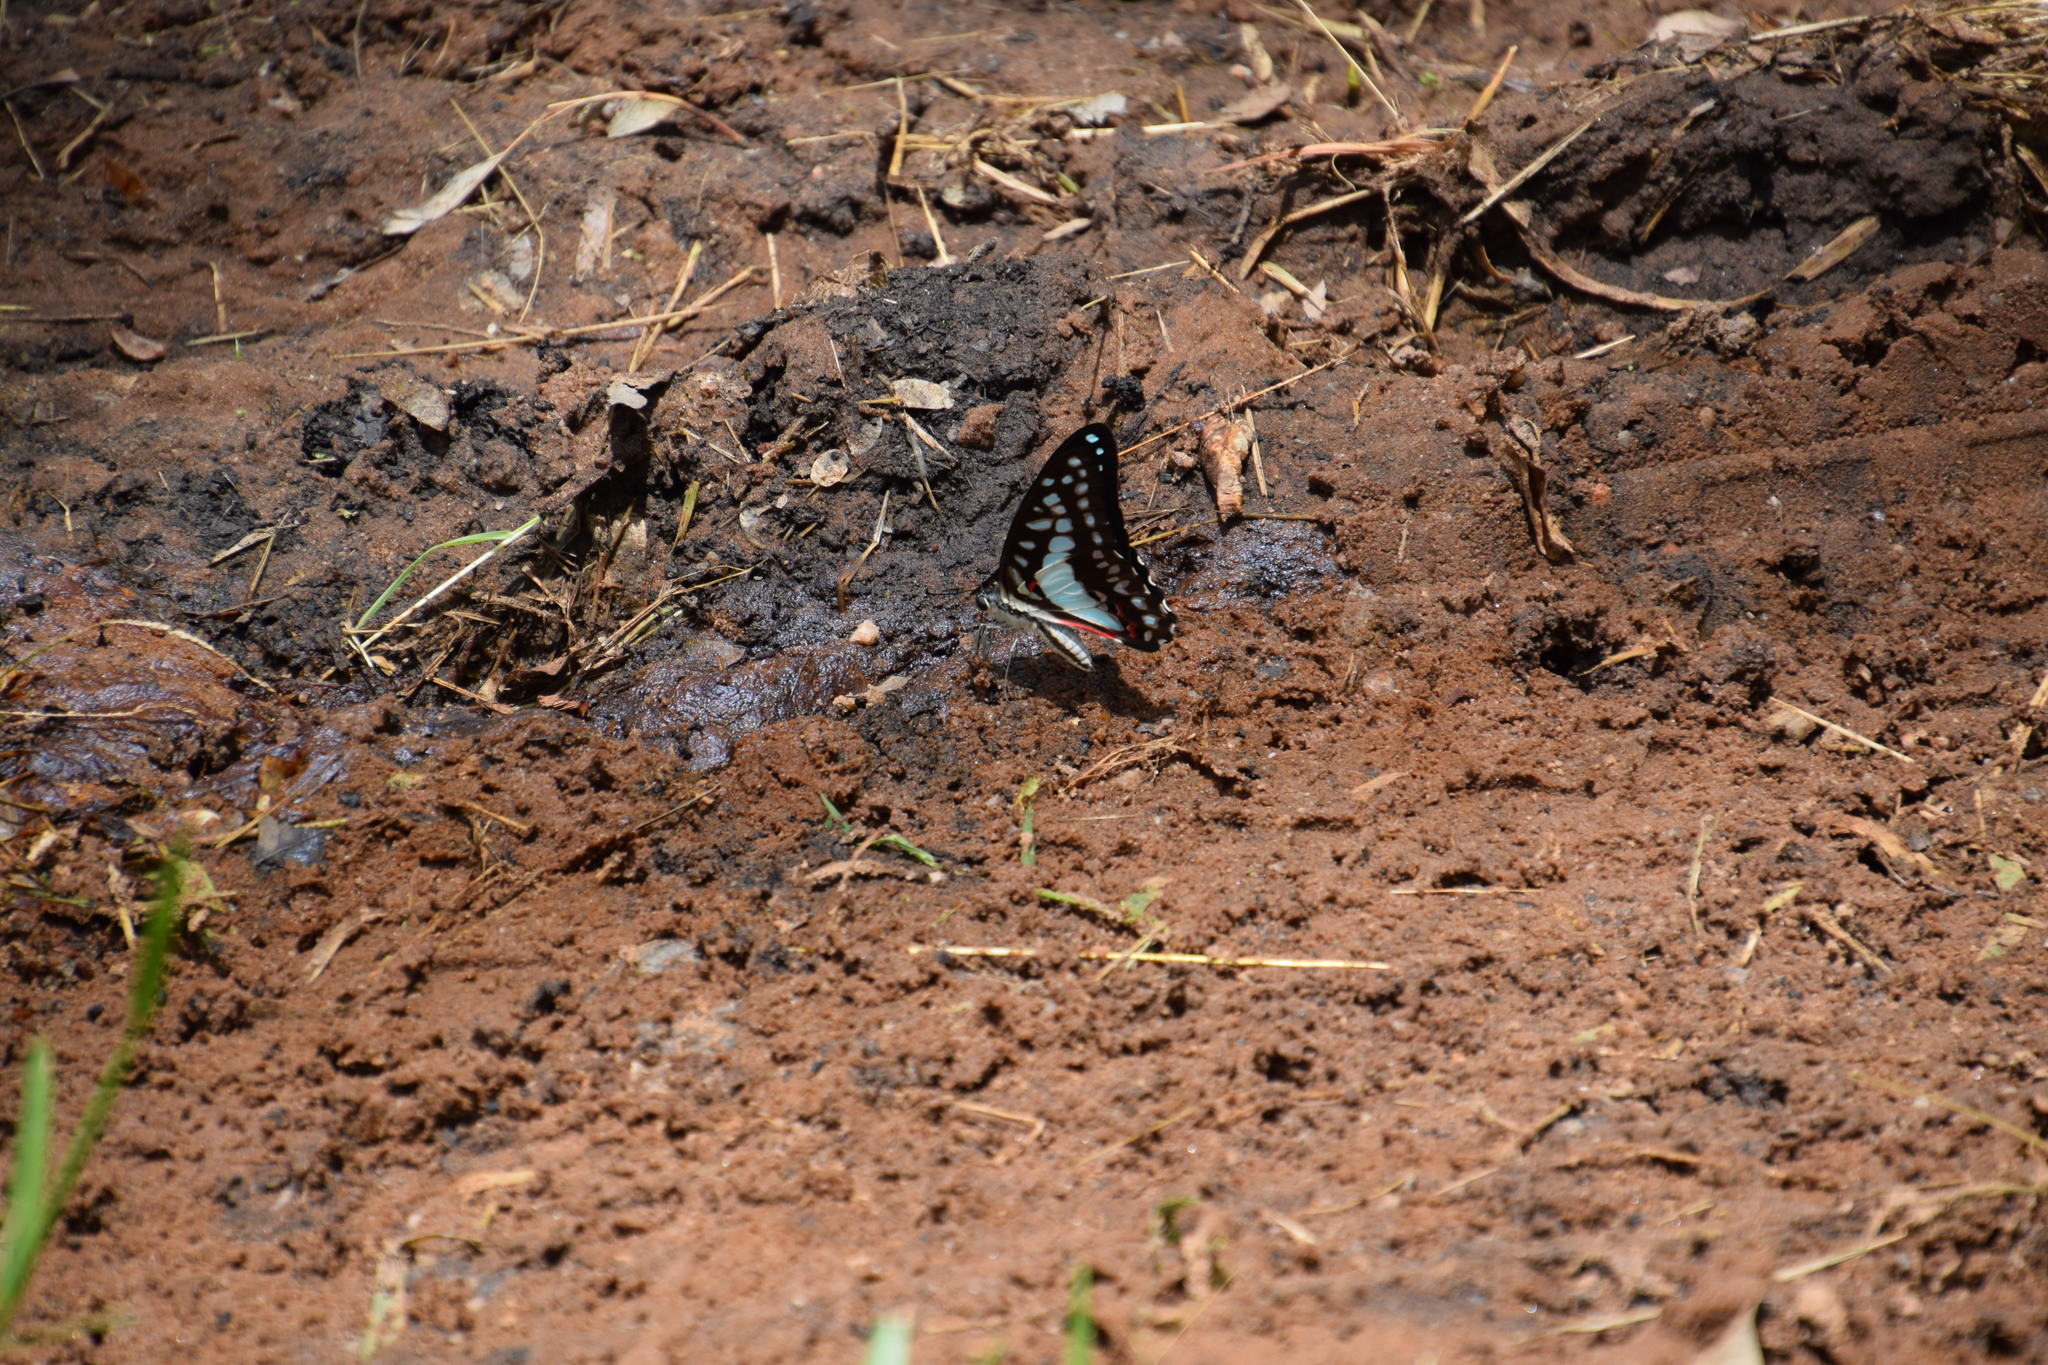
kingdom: Animalia
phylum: Arthropoda
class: Insecta
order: Lepidoptera
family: Papilionidae
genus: Graphium
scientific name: Graphium eurypylus
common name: Great jay
